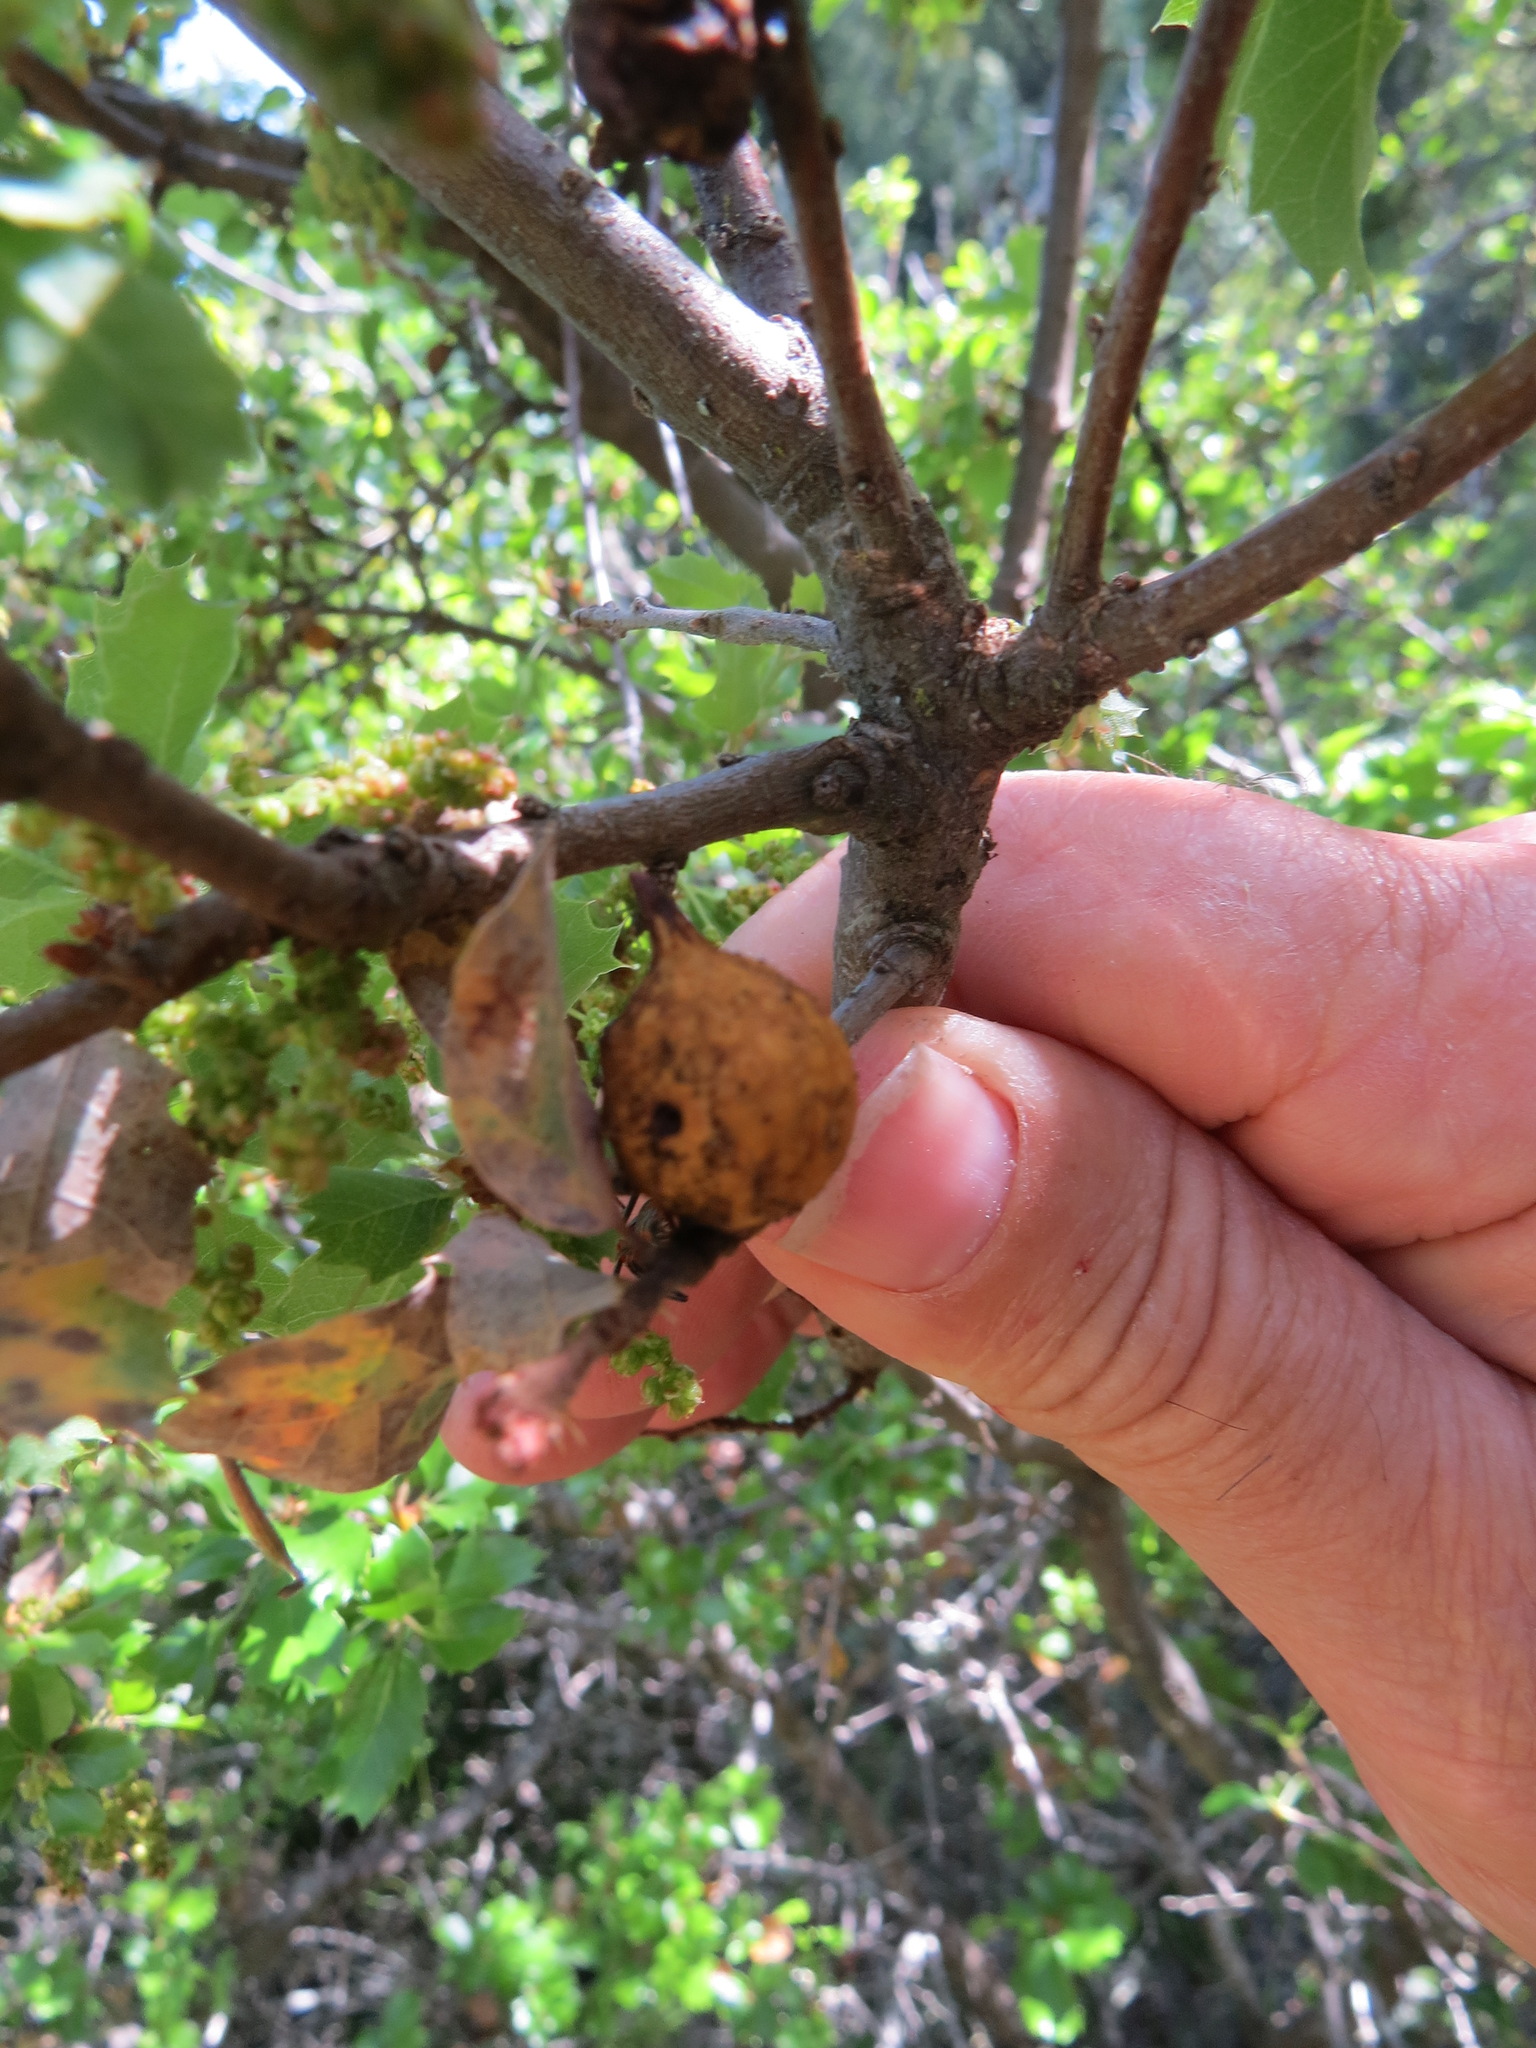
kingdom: Animalia
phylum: Arthropoda
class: Insecta
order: Hymenoptera
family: Cynipidae
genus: Burnettweldia
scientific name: Burnettweldia
